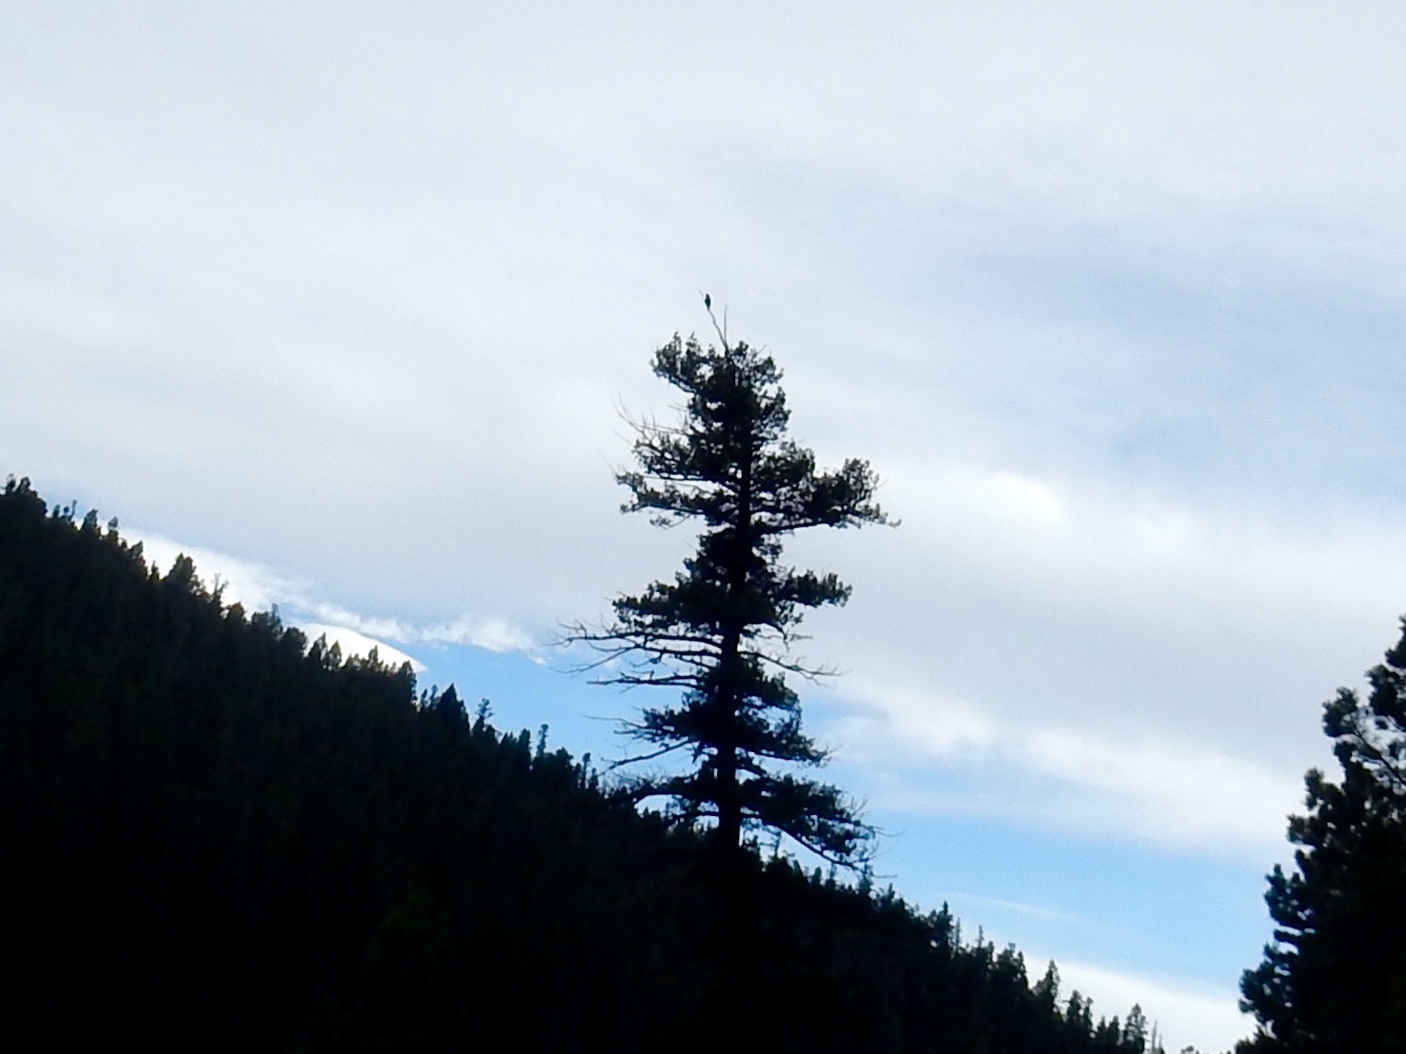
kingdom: Animalia
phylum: Chordata
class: Aves
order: Accipitriformes
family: Accipitridae
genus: Buteo
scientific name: Buteo jamaicensis
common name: Red-tailed hawk
